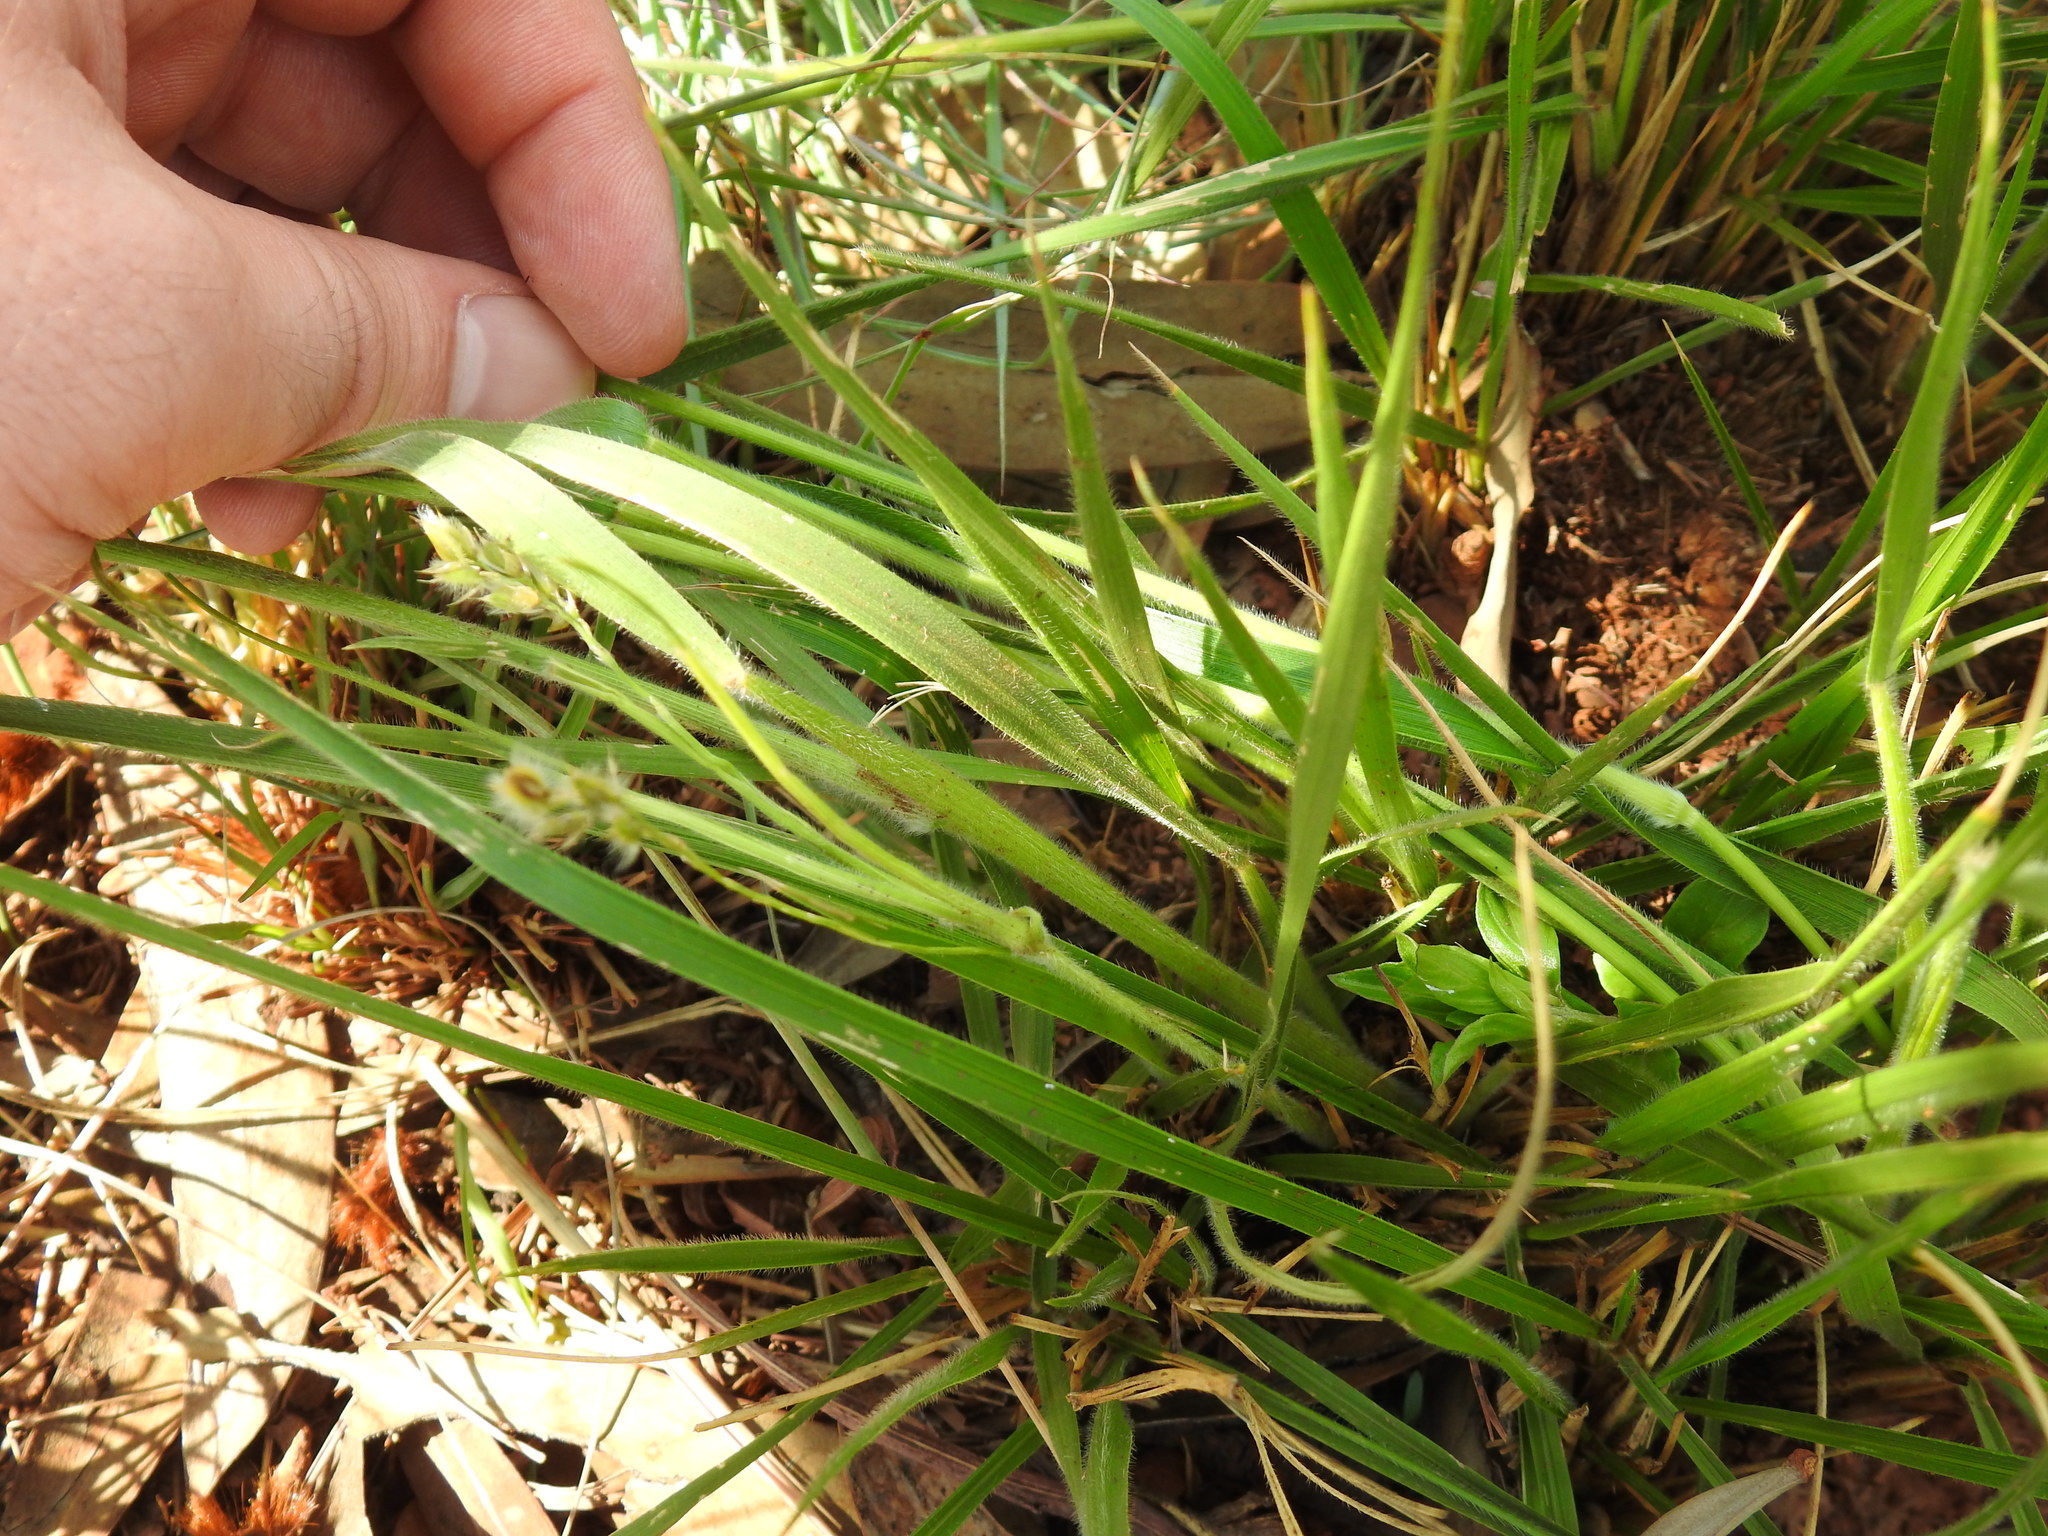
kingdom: Plantae
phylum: Tracheophyta
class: Liliopsida
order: Poales
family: Poaceae
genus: Alloteropsis
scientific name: Alloteropsis semialata
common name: Cockatoo grass
